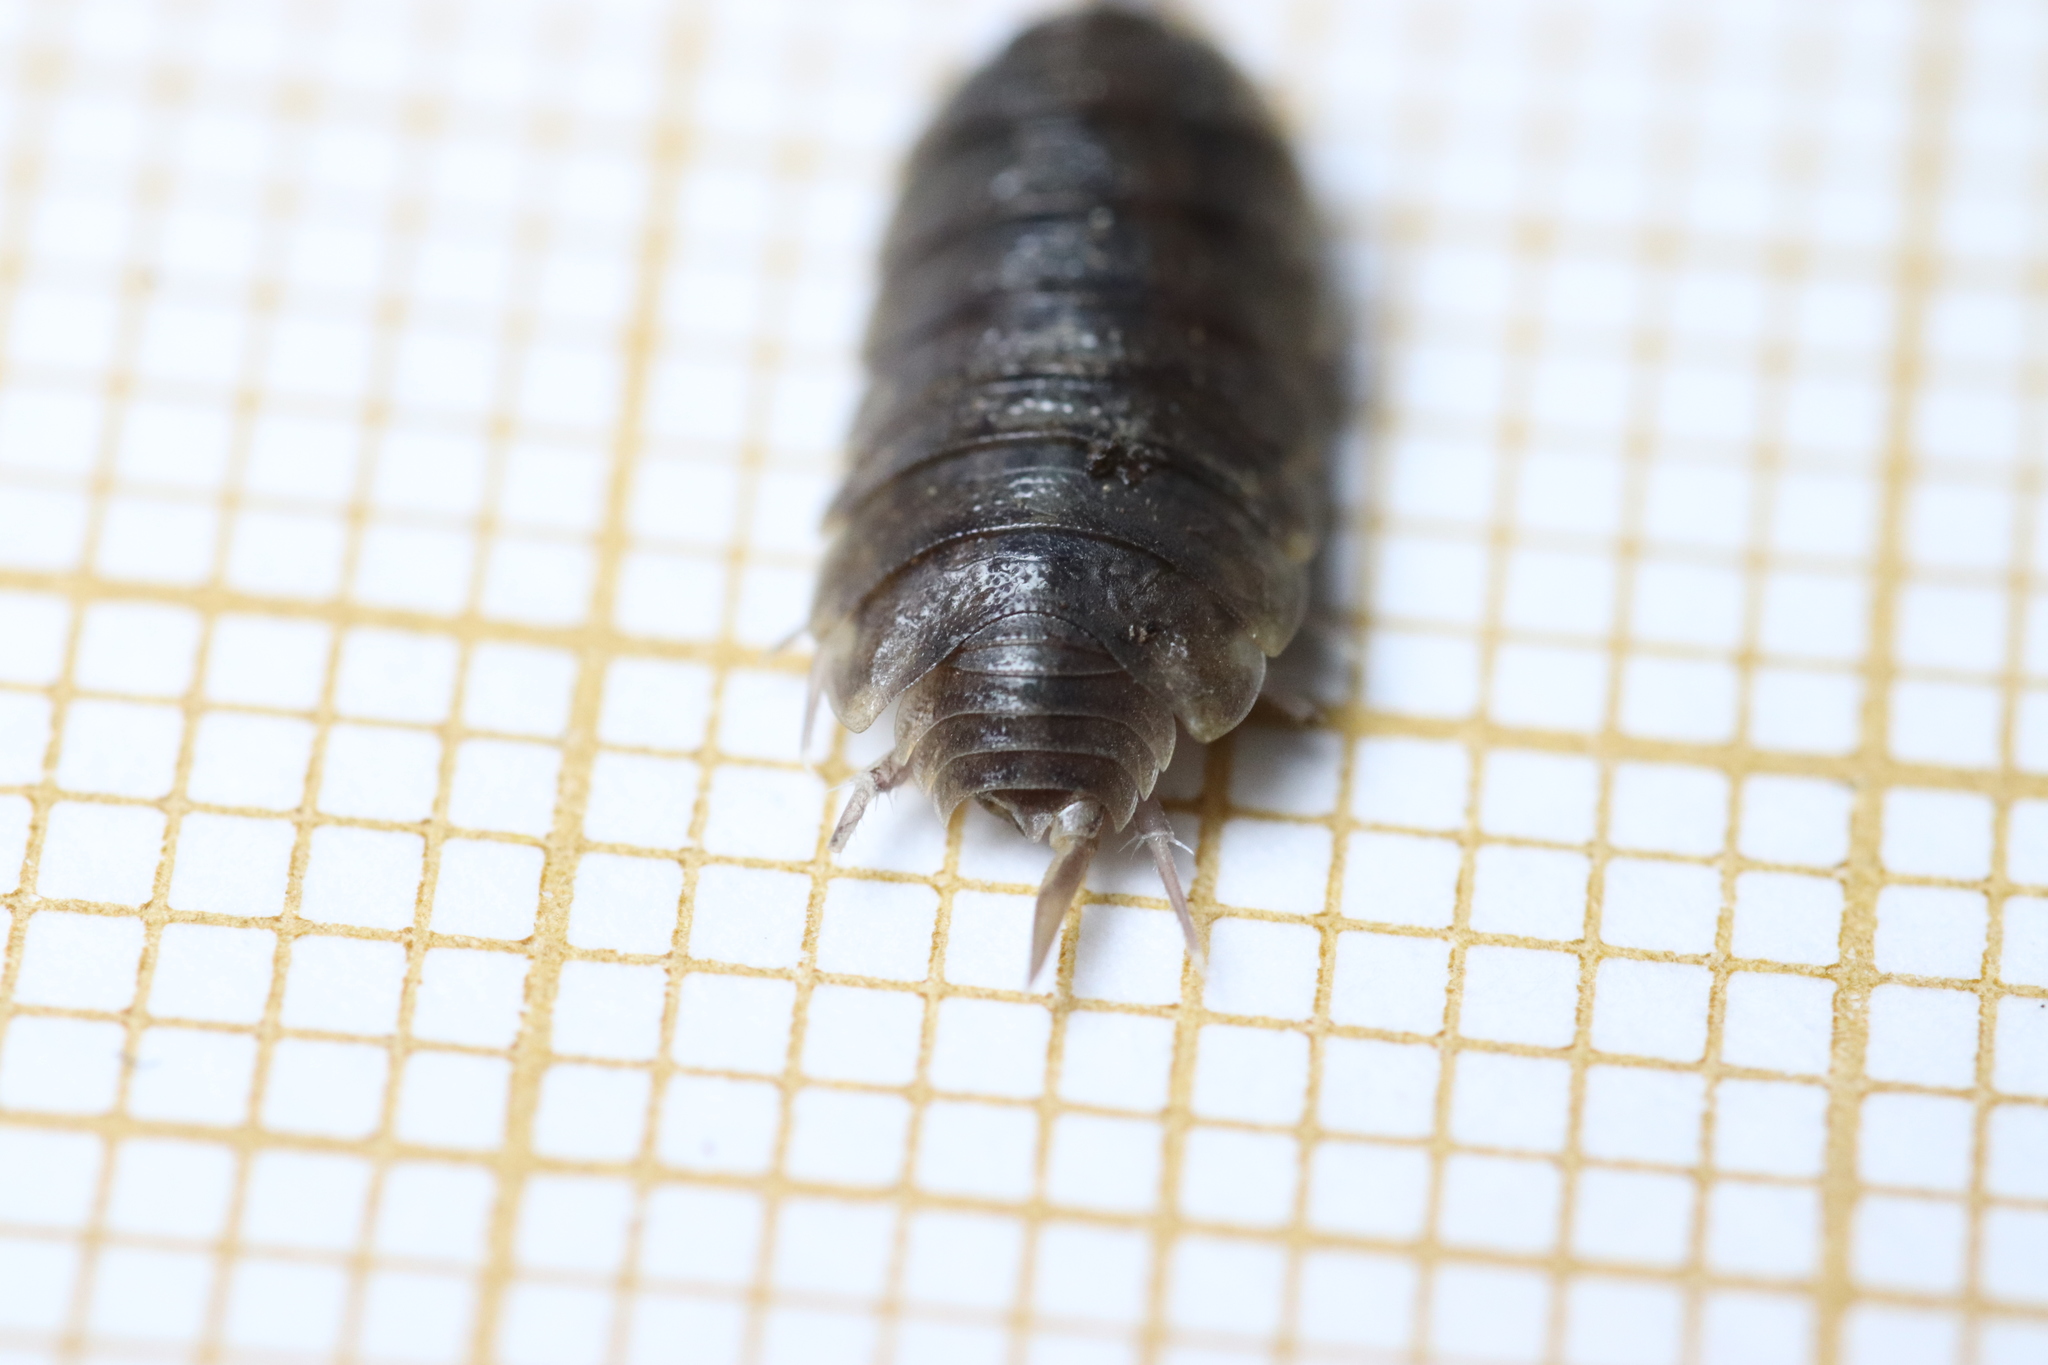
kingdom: Animalia
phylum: Arthropoda
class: Malacostraca
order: Isopoda
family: Agnaridae
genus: Orthometopon
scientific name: Orthometopon planum
